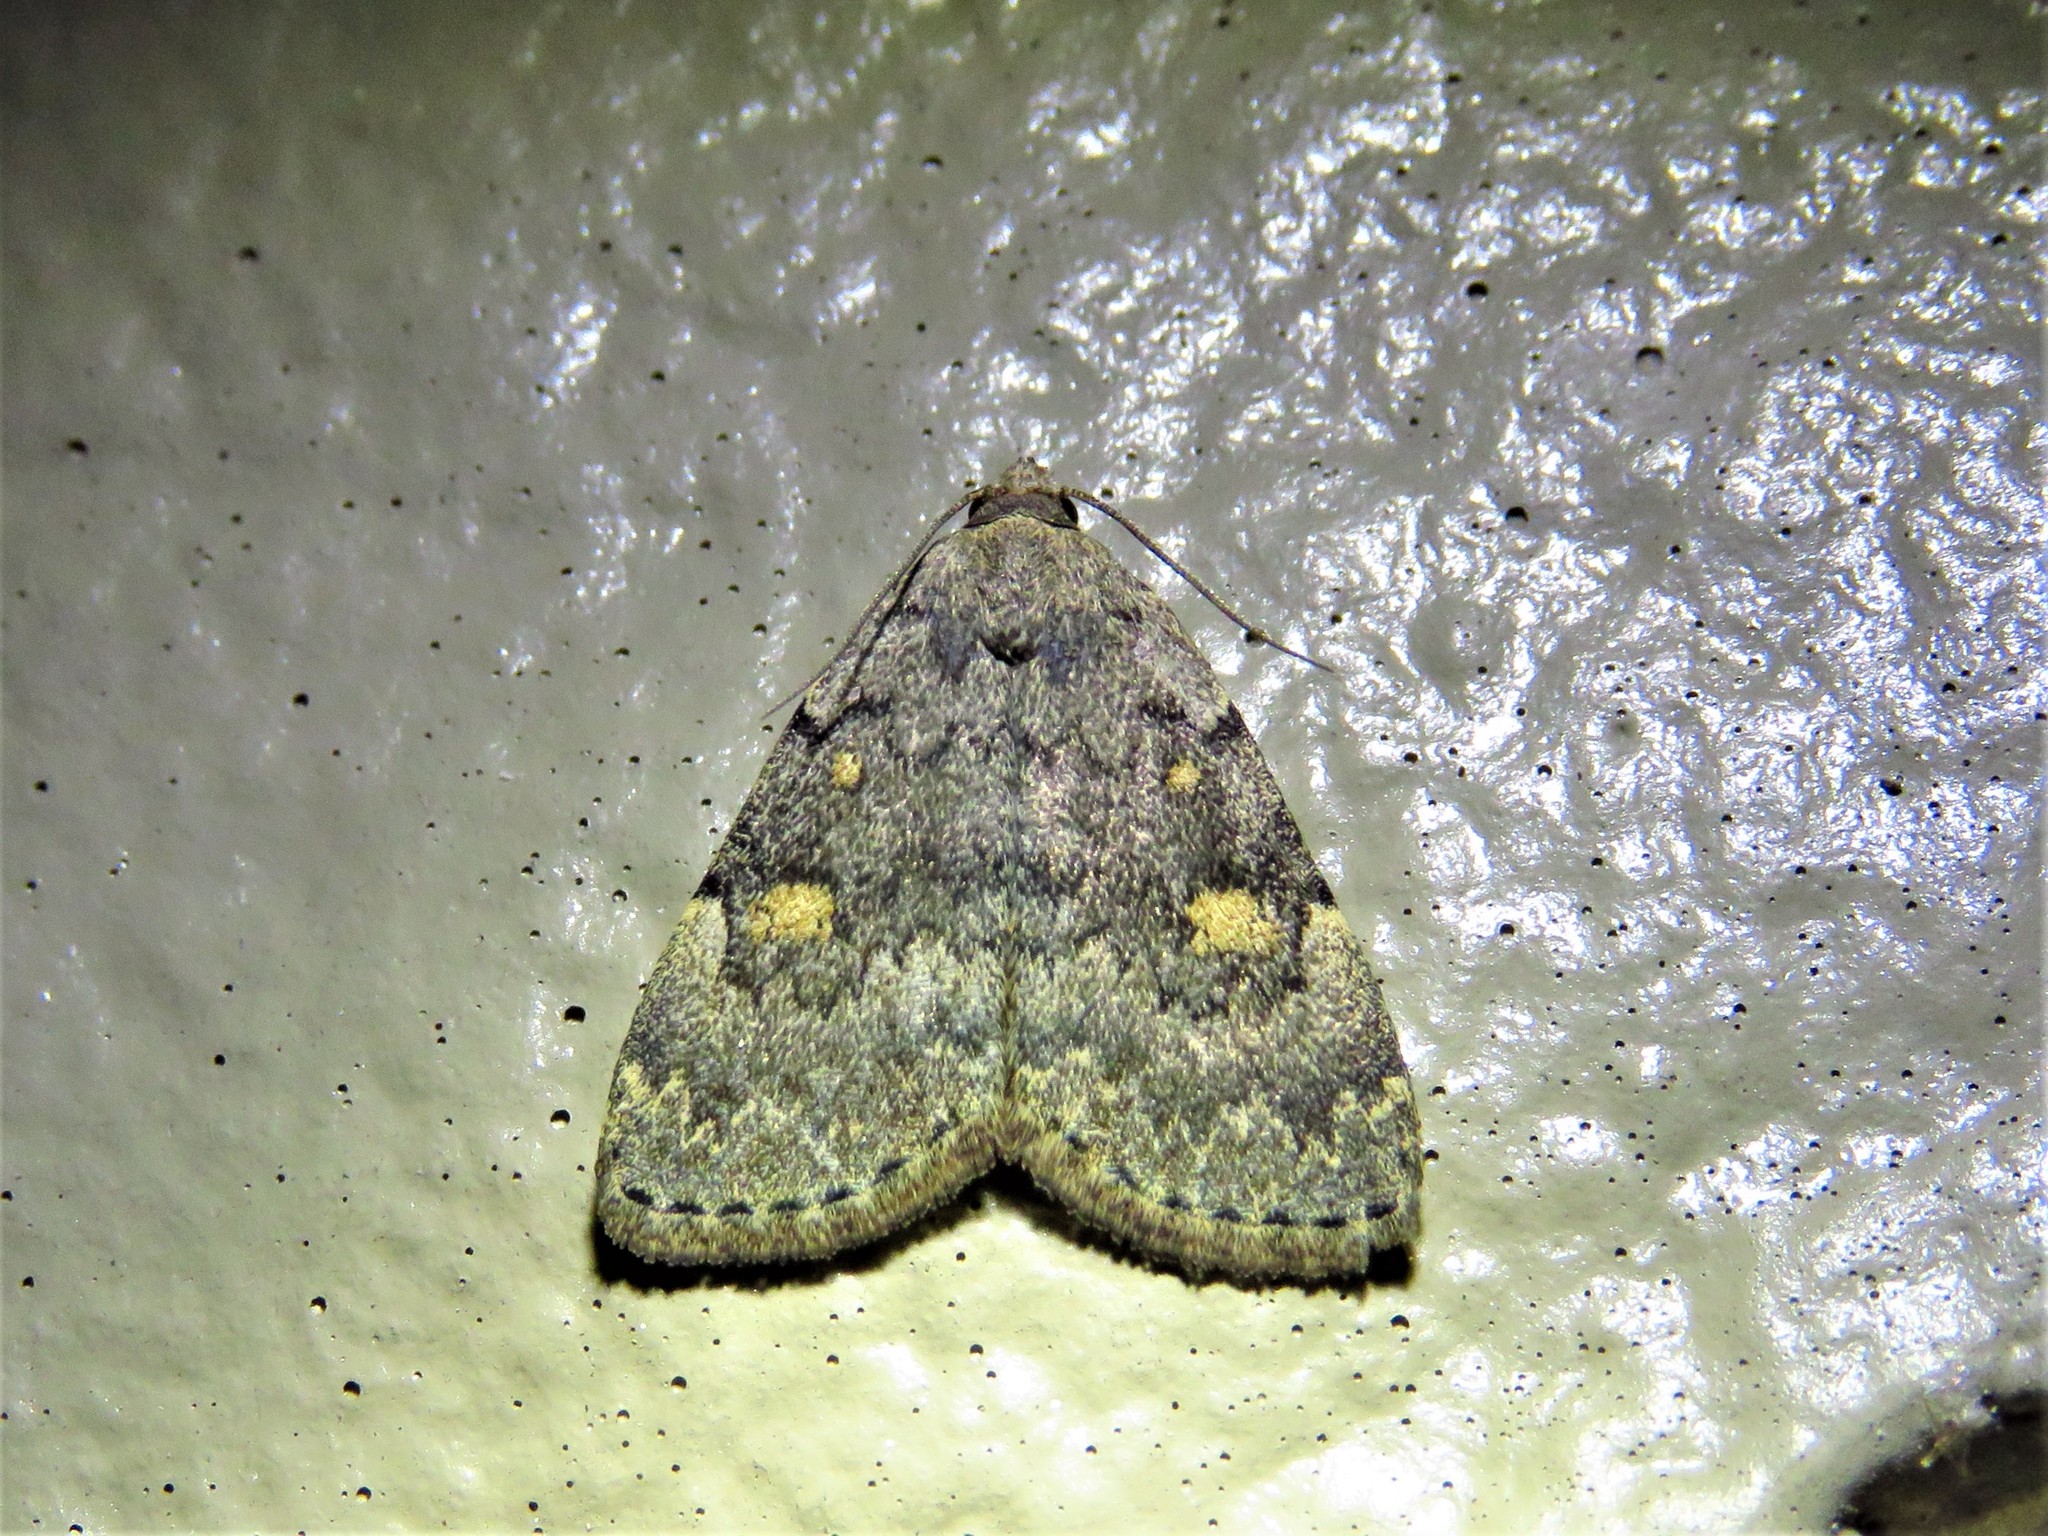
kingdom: Animalia
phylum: Arthropoda
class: Insecta
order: Lepidoptera
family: Erebidae
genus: Idia
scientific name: Idia aemula
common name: Common idia moth
